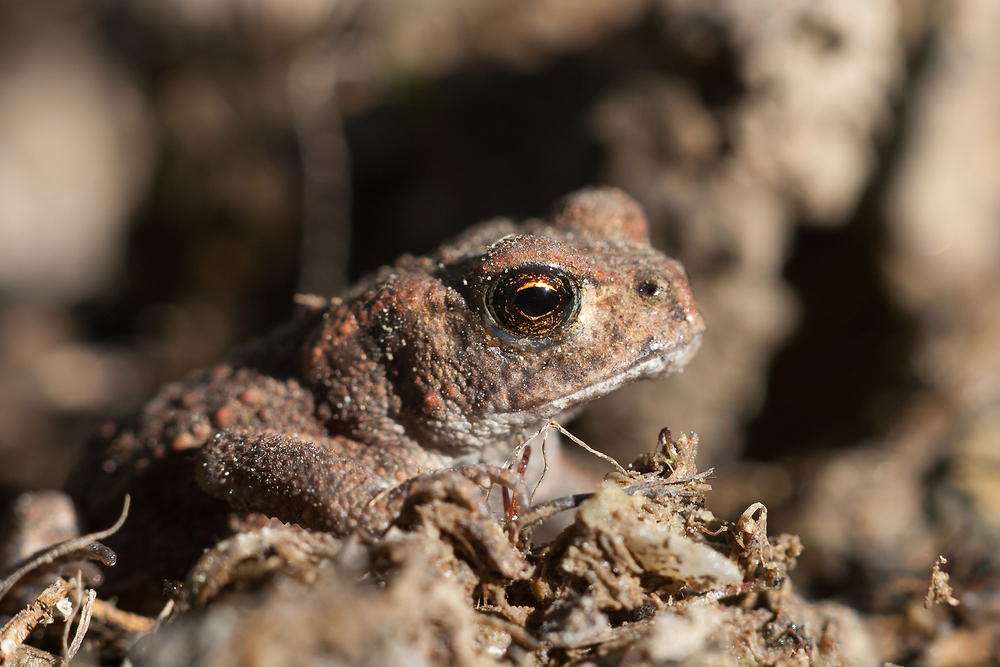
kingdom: Animalia
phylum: Chordata
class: Amphibia
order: Anura
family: Bufonidae
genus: Bufo
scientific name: Bufo bufo
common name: Common toad
